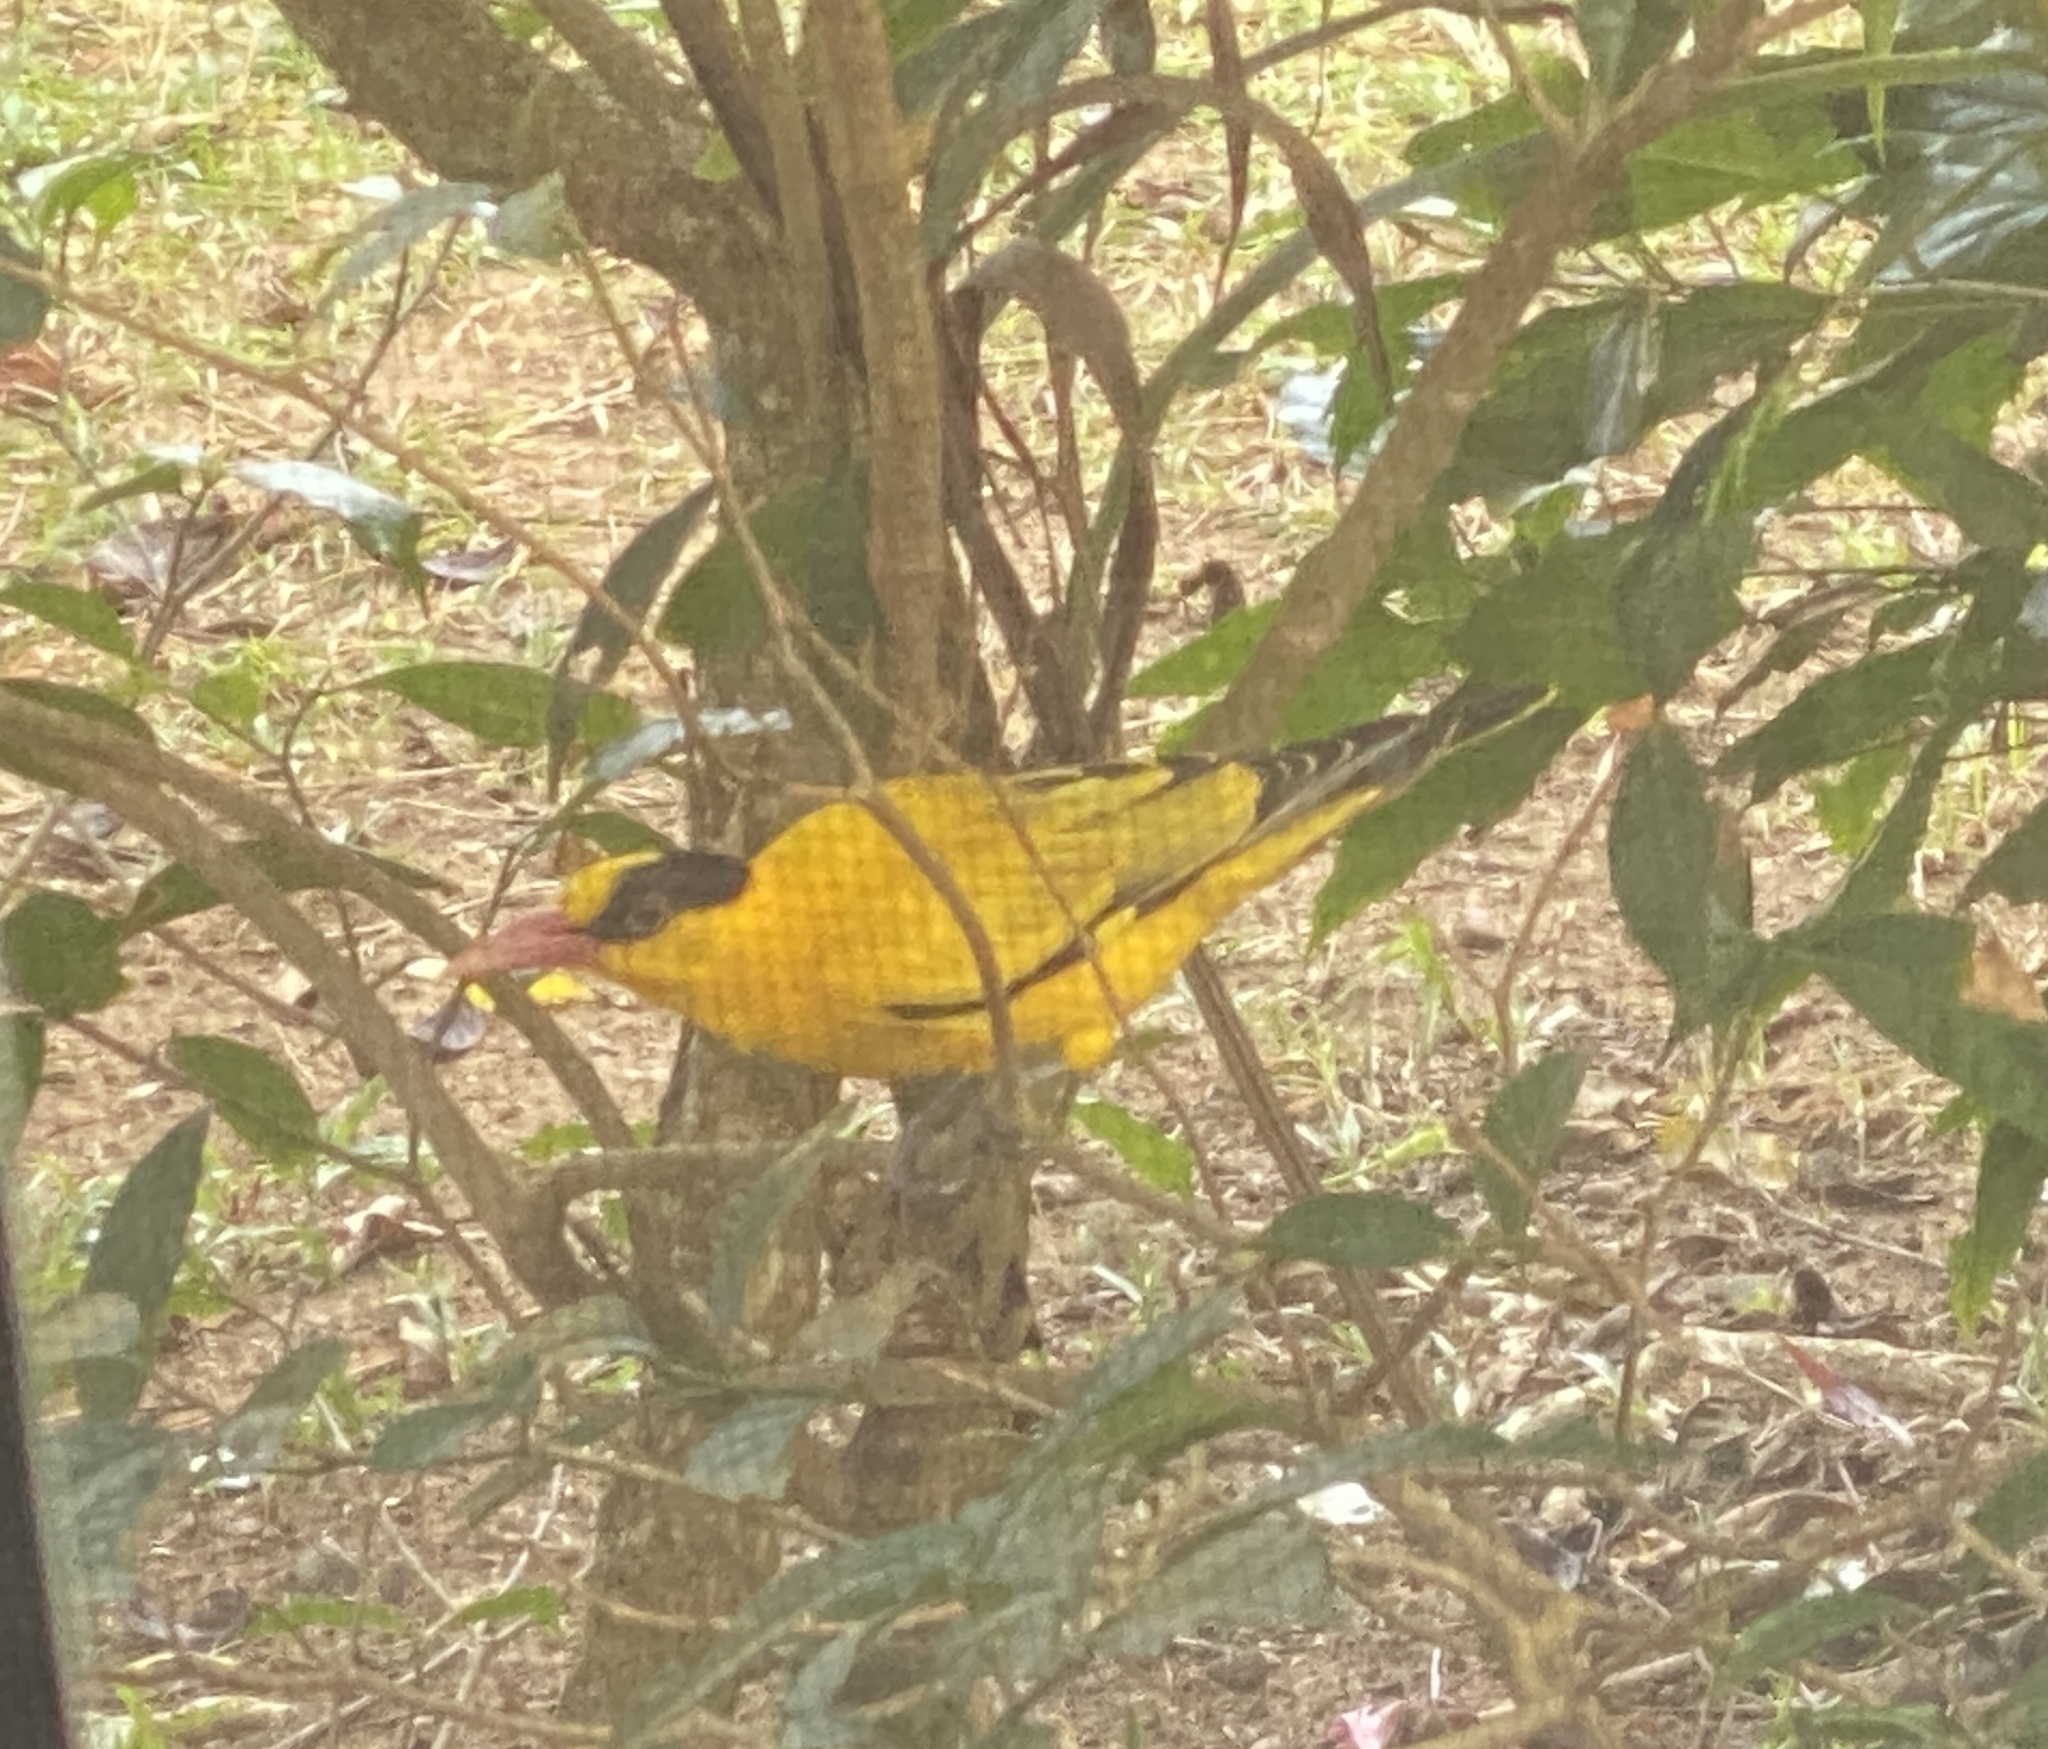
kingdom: Animalia
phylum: Chordata
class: Aves
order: Passeriformes
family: Oriolidae
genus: Oriolus
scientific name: Oriolus chinensis
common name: Black-naped oriole
